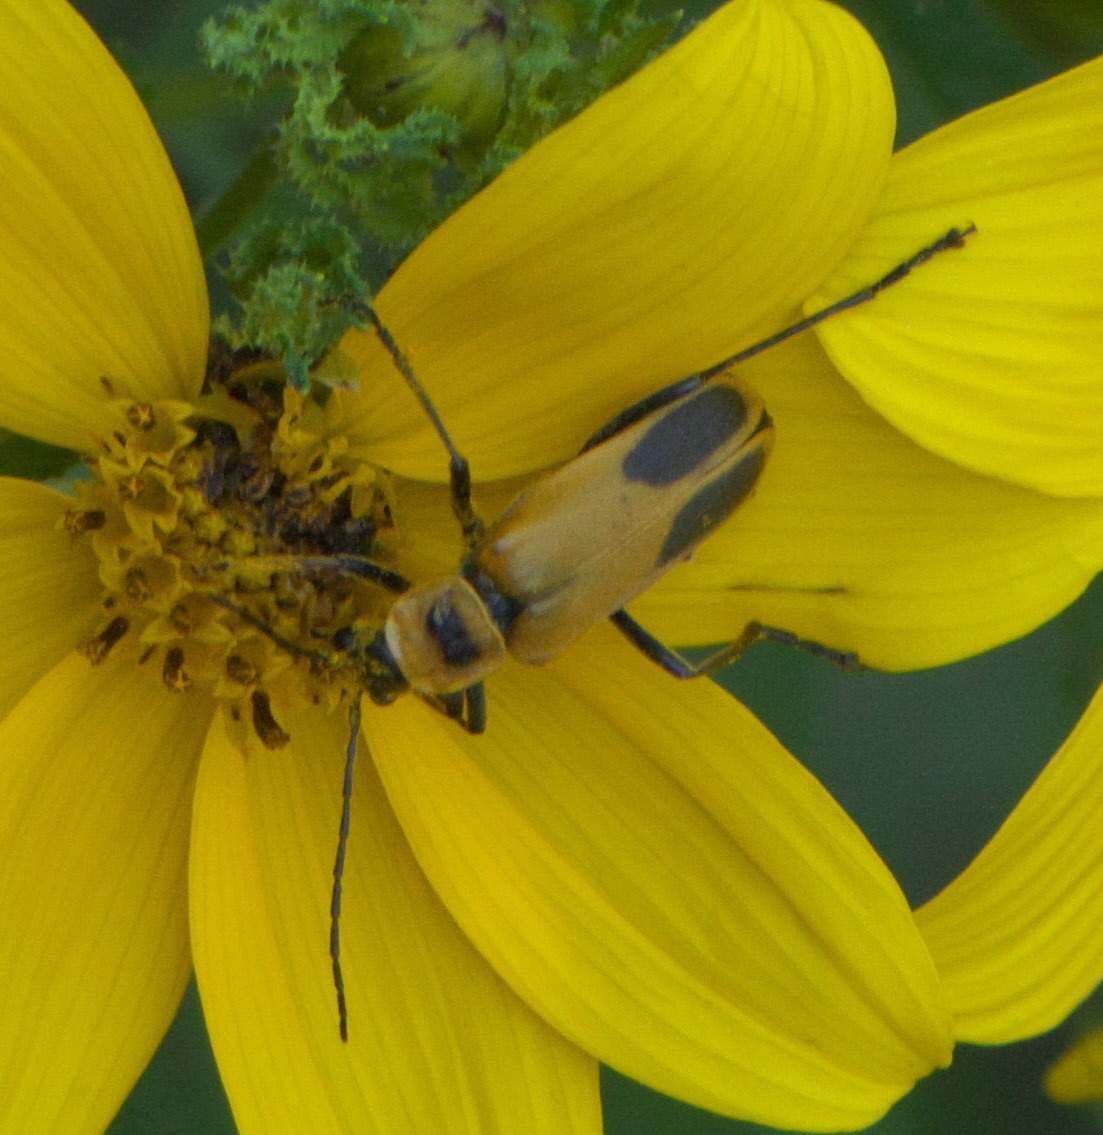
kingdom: Animalia
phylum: Arthropoda
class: Insecta
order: Coleoptera
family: Cantharidae
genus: Chauliognathus
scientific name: Chauliognathus pensylvanicus
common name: Goldenrod soldier beetle
